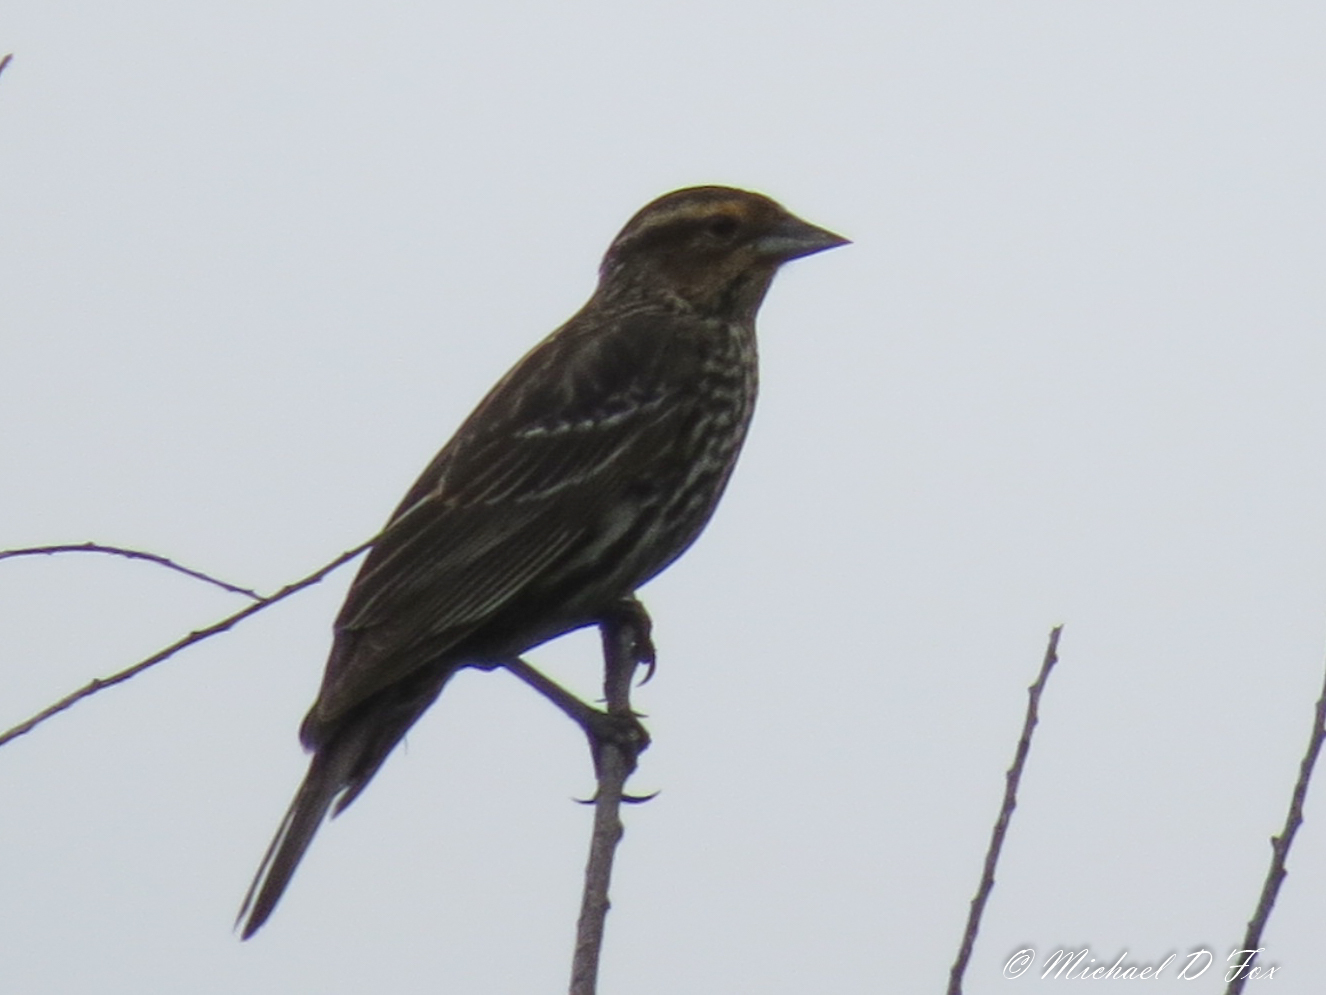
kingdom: Animalia
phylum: Chordata
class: Aves
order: Passeriformes
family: Icteridae
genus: Agelaius
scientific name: Agelaius phoeniceus
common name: Red-winged blackbird
